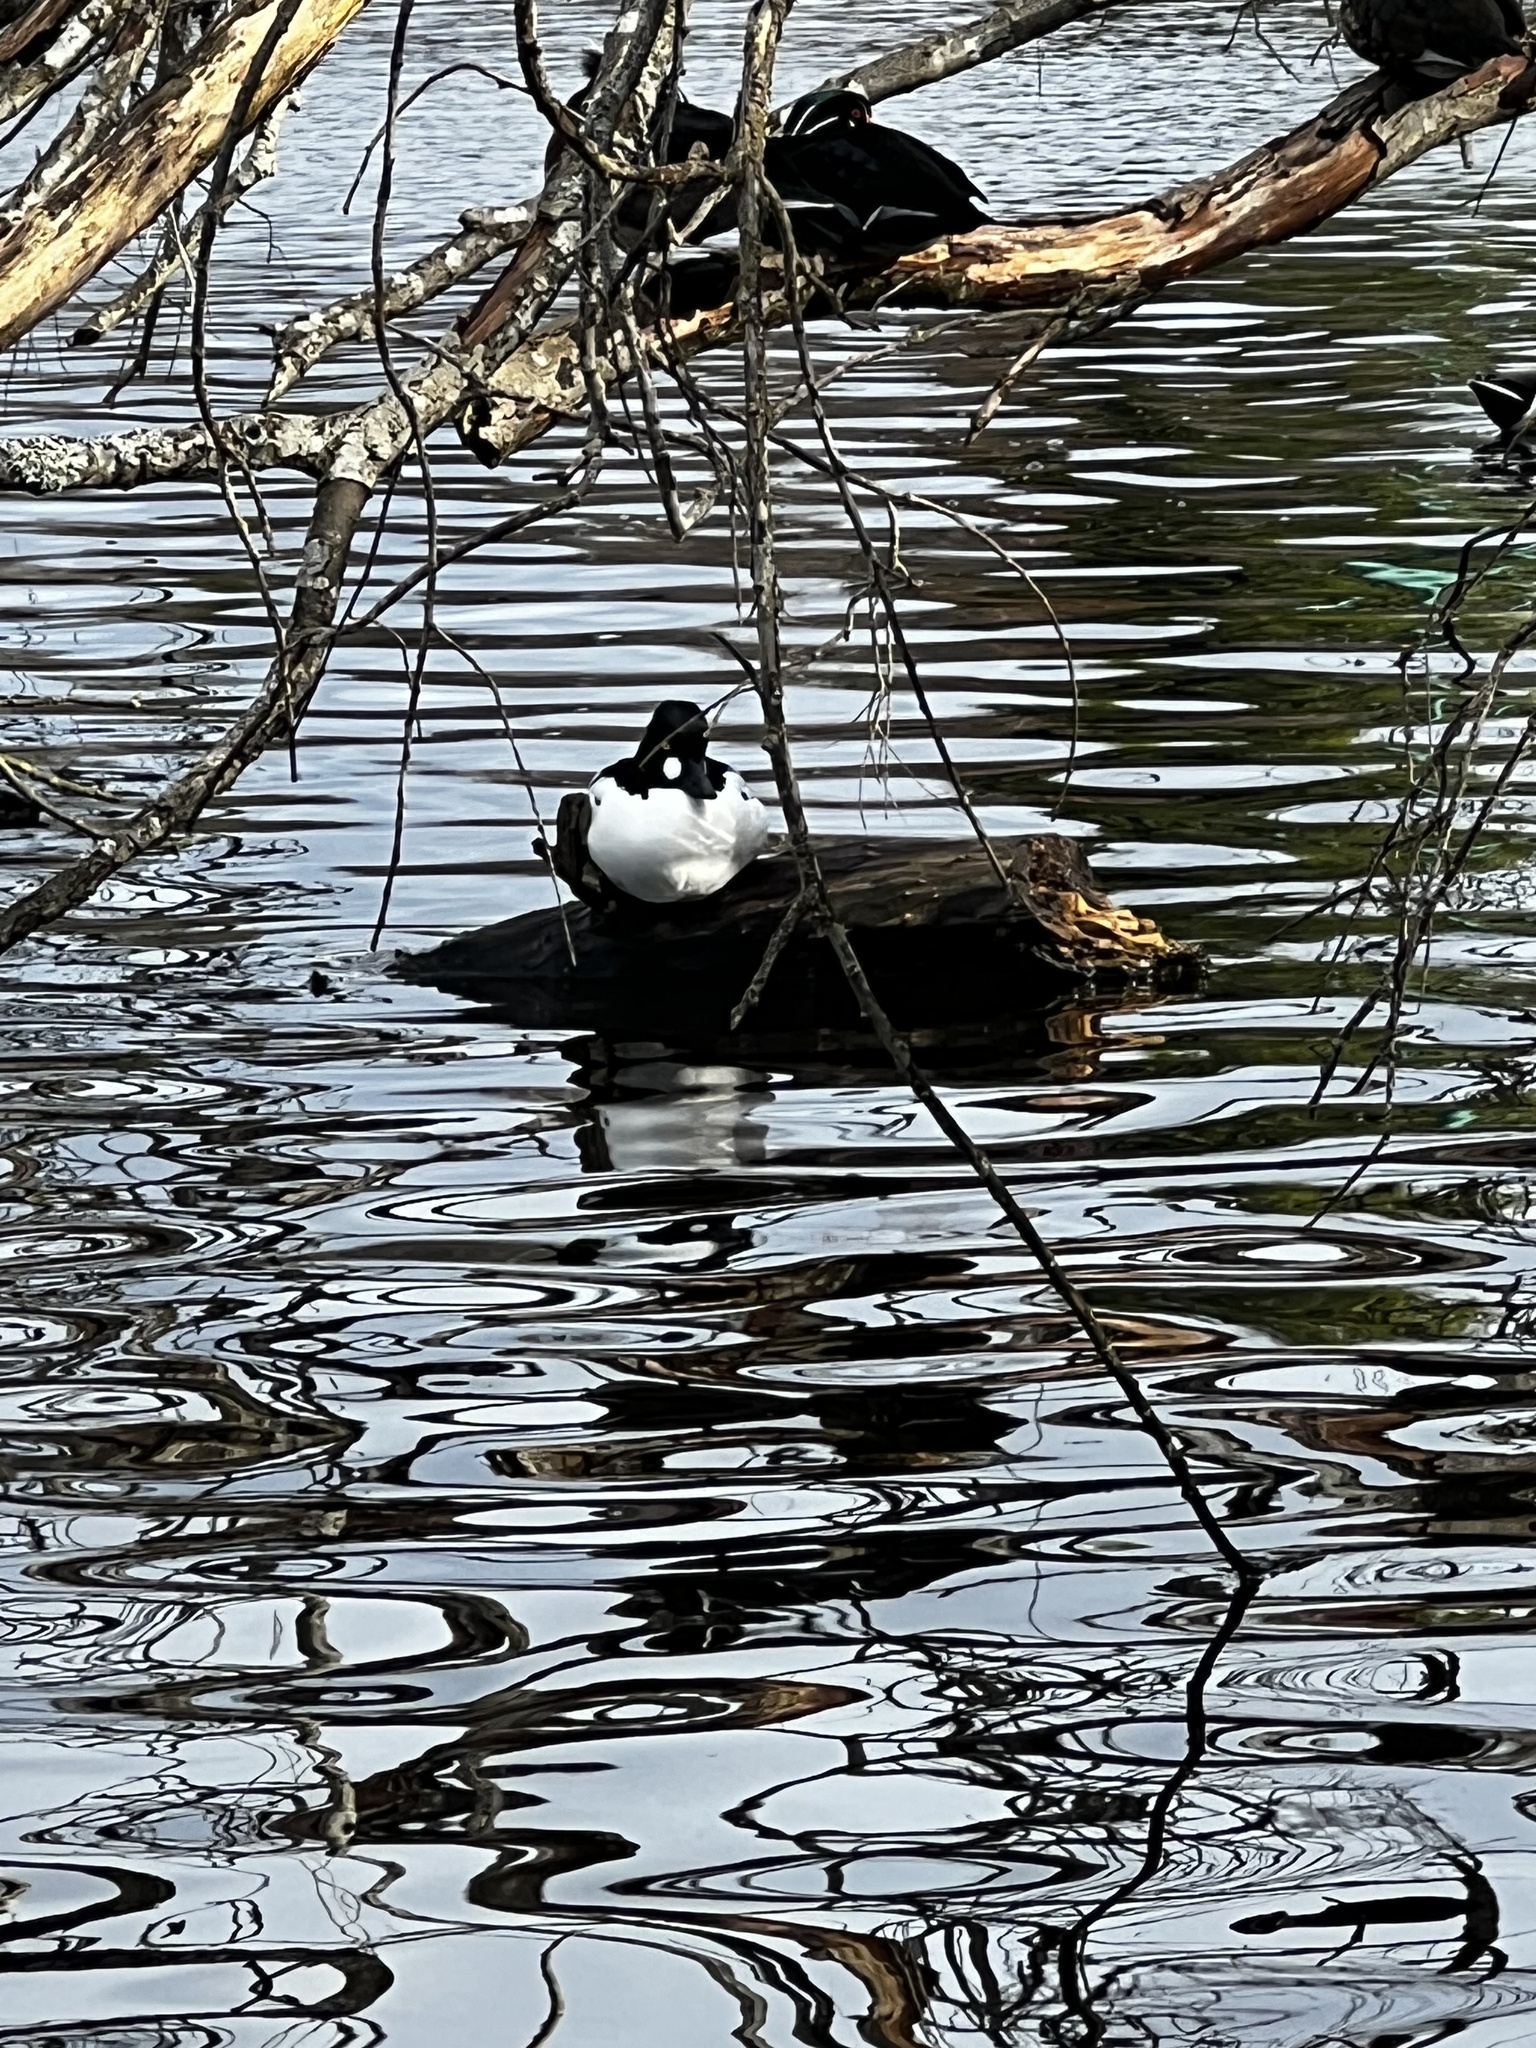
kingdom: Animalia
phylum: Chordata
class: Aves
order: Anseriformes
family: Anatidae
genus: Bucephala
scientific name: Bucephala clangula
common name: Common goldeneye
